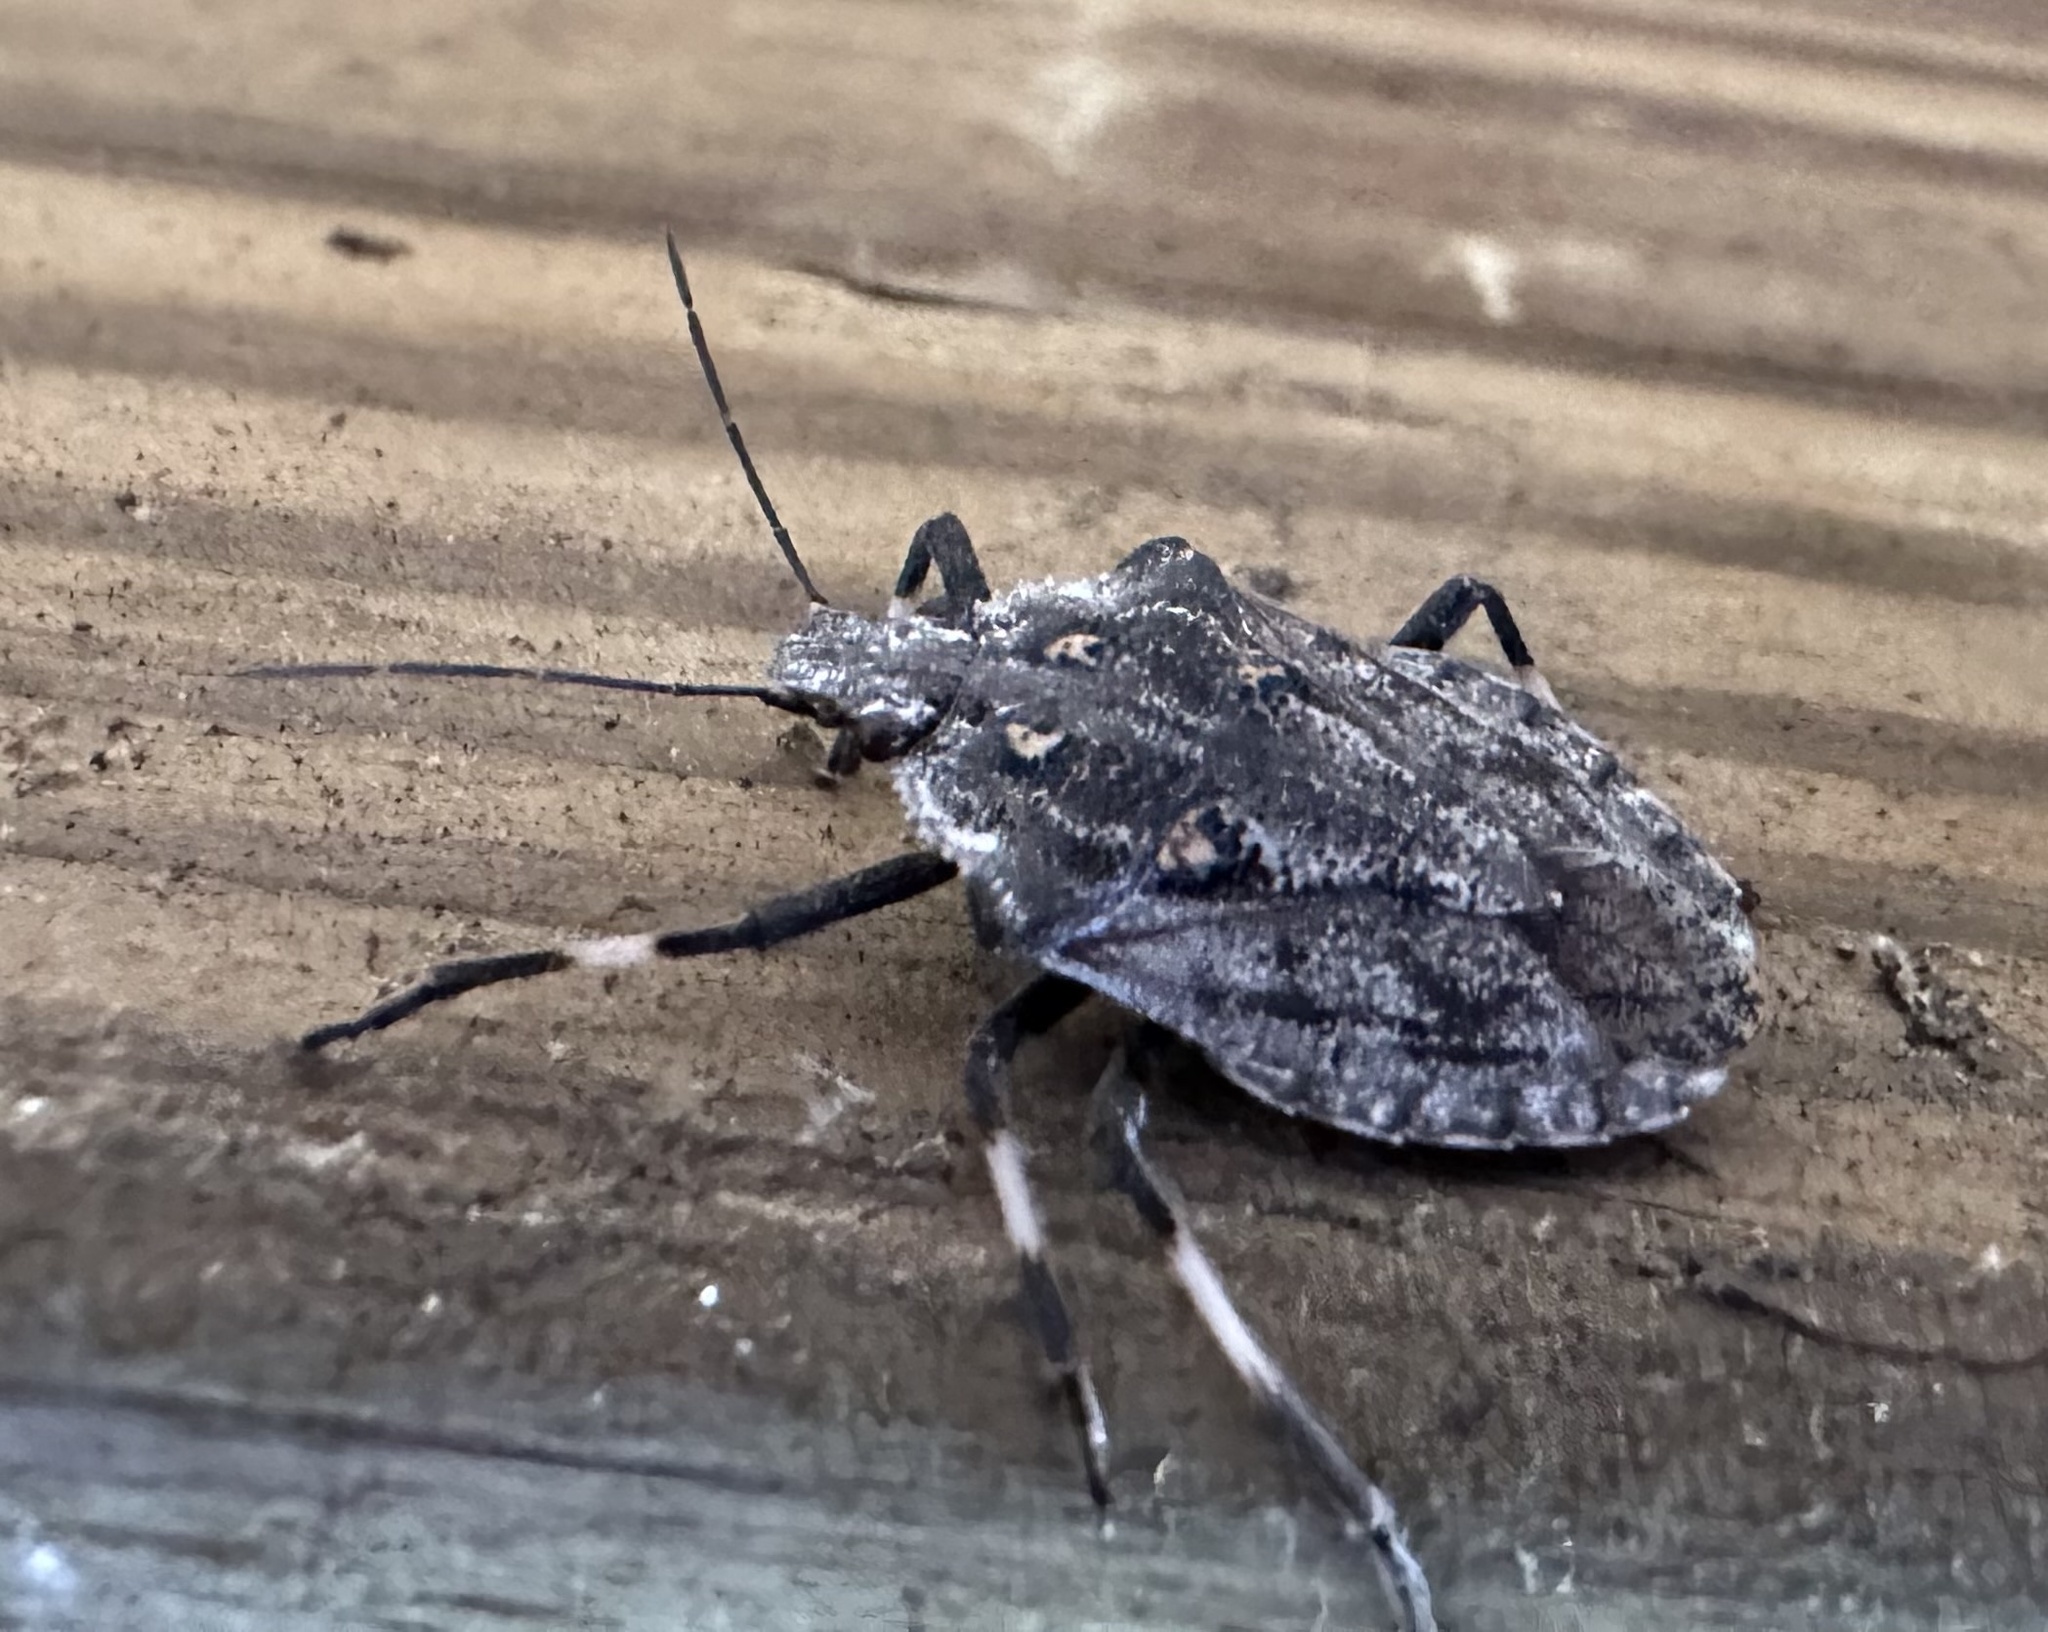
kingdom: Animalia
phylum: Arthropoda
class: Insecta
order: Hemiptera
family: Pentatomidae
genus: Brochymena
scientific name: Brochymena myops
